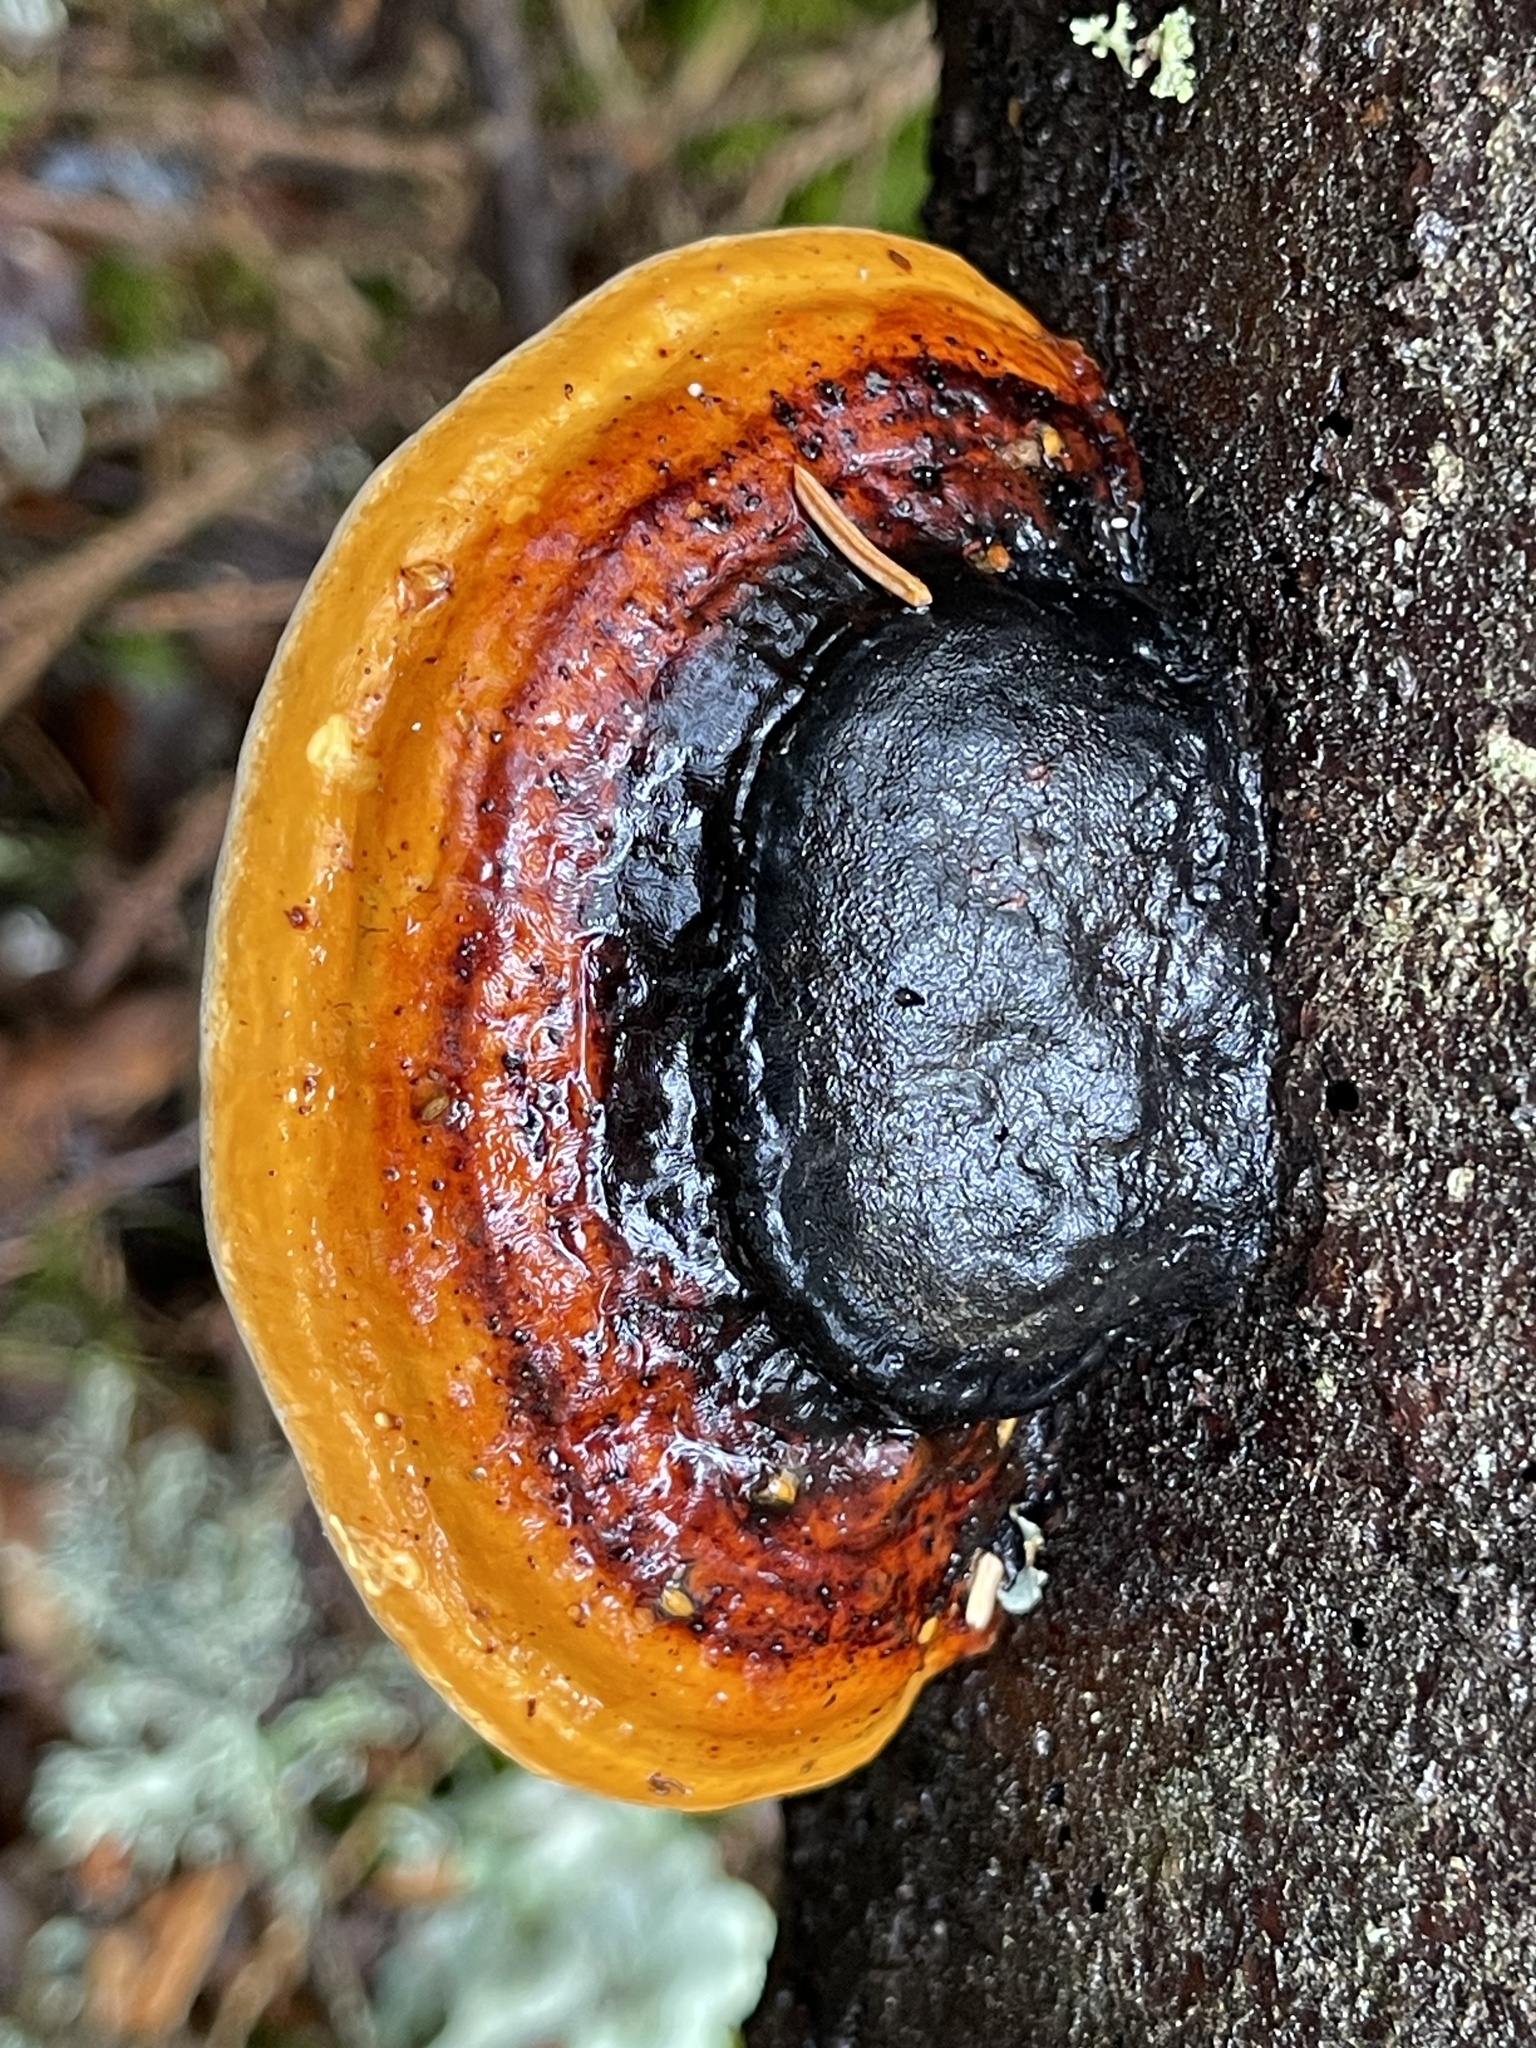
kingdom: Fungi
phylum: Basidiomycota
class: Agaricomycetes
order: Polyporales
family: Fomitopsidaceae
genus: Fomitopsis
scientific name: Fomitopsis pinicola
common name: Red-belted bracket
